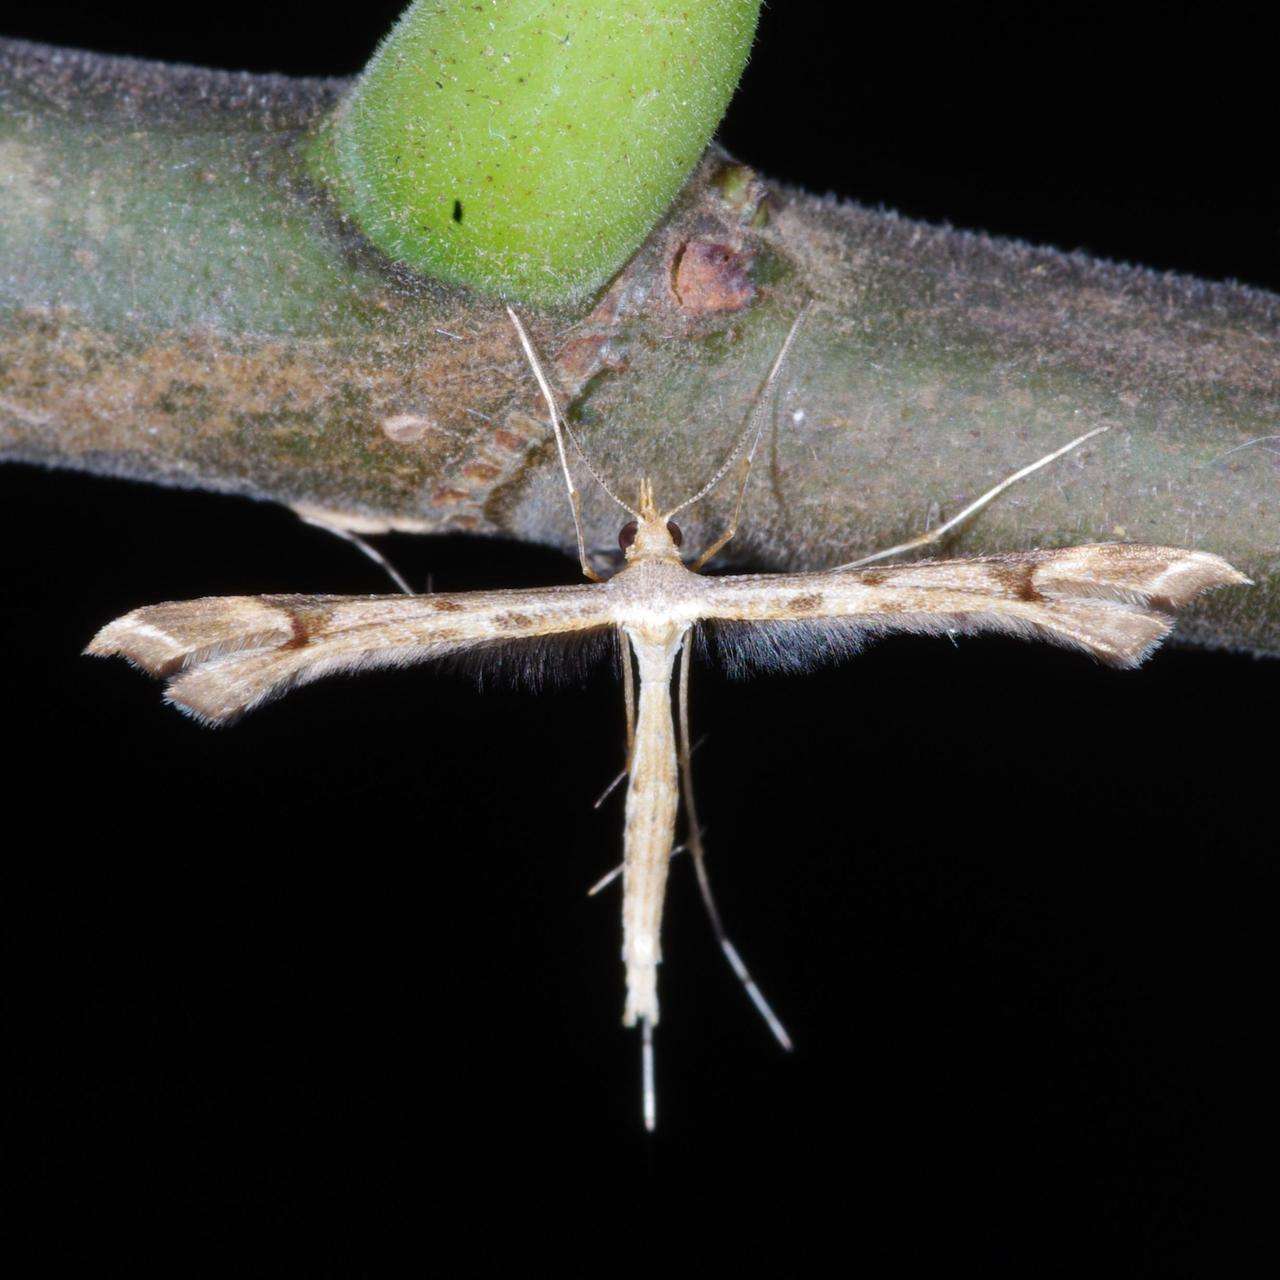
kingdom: Animalia
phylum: Arthropoda
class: Insecta
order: Lepidoptera
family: Pterophoridae
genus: Sinpunctiptilia
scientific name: Sinpunctiptilia emissalis
